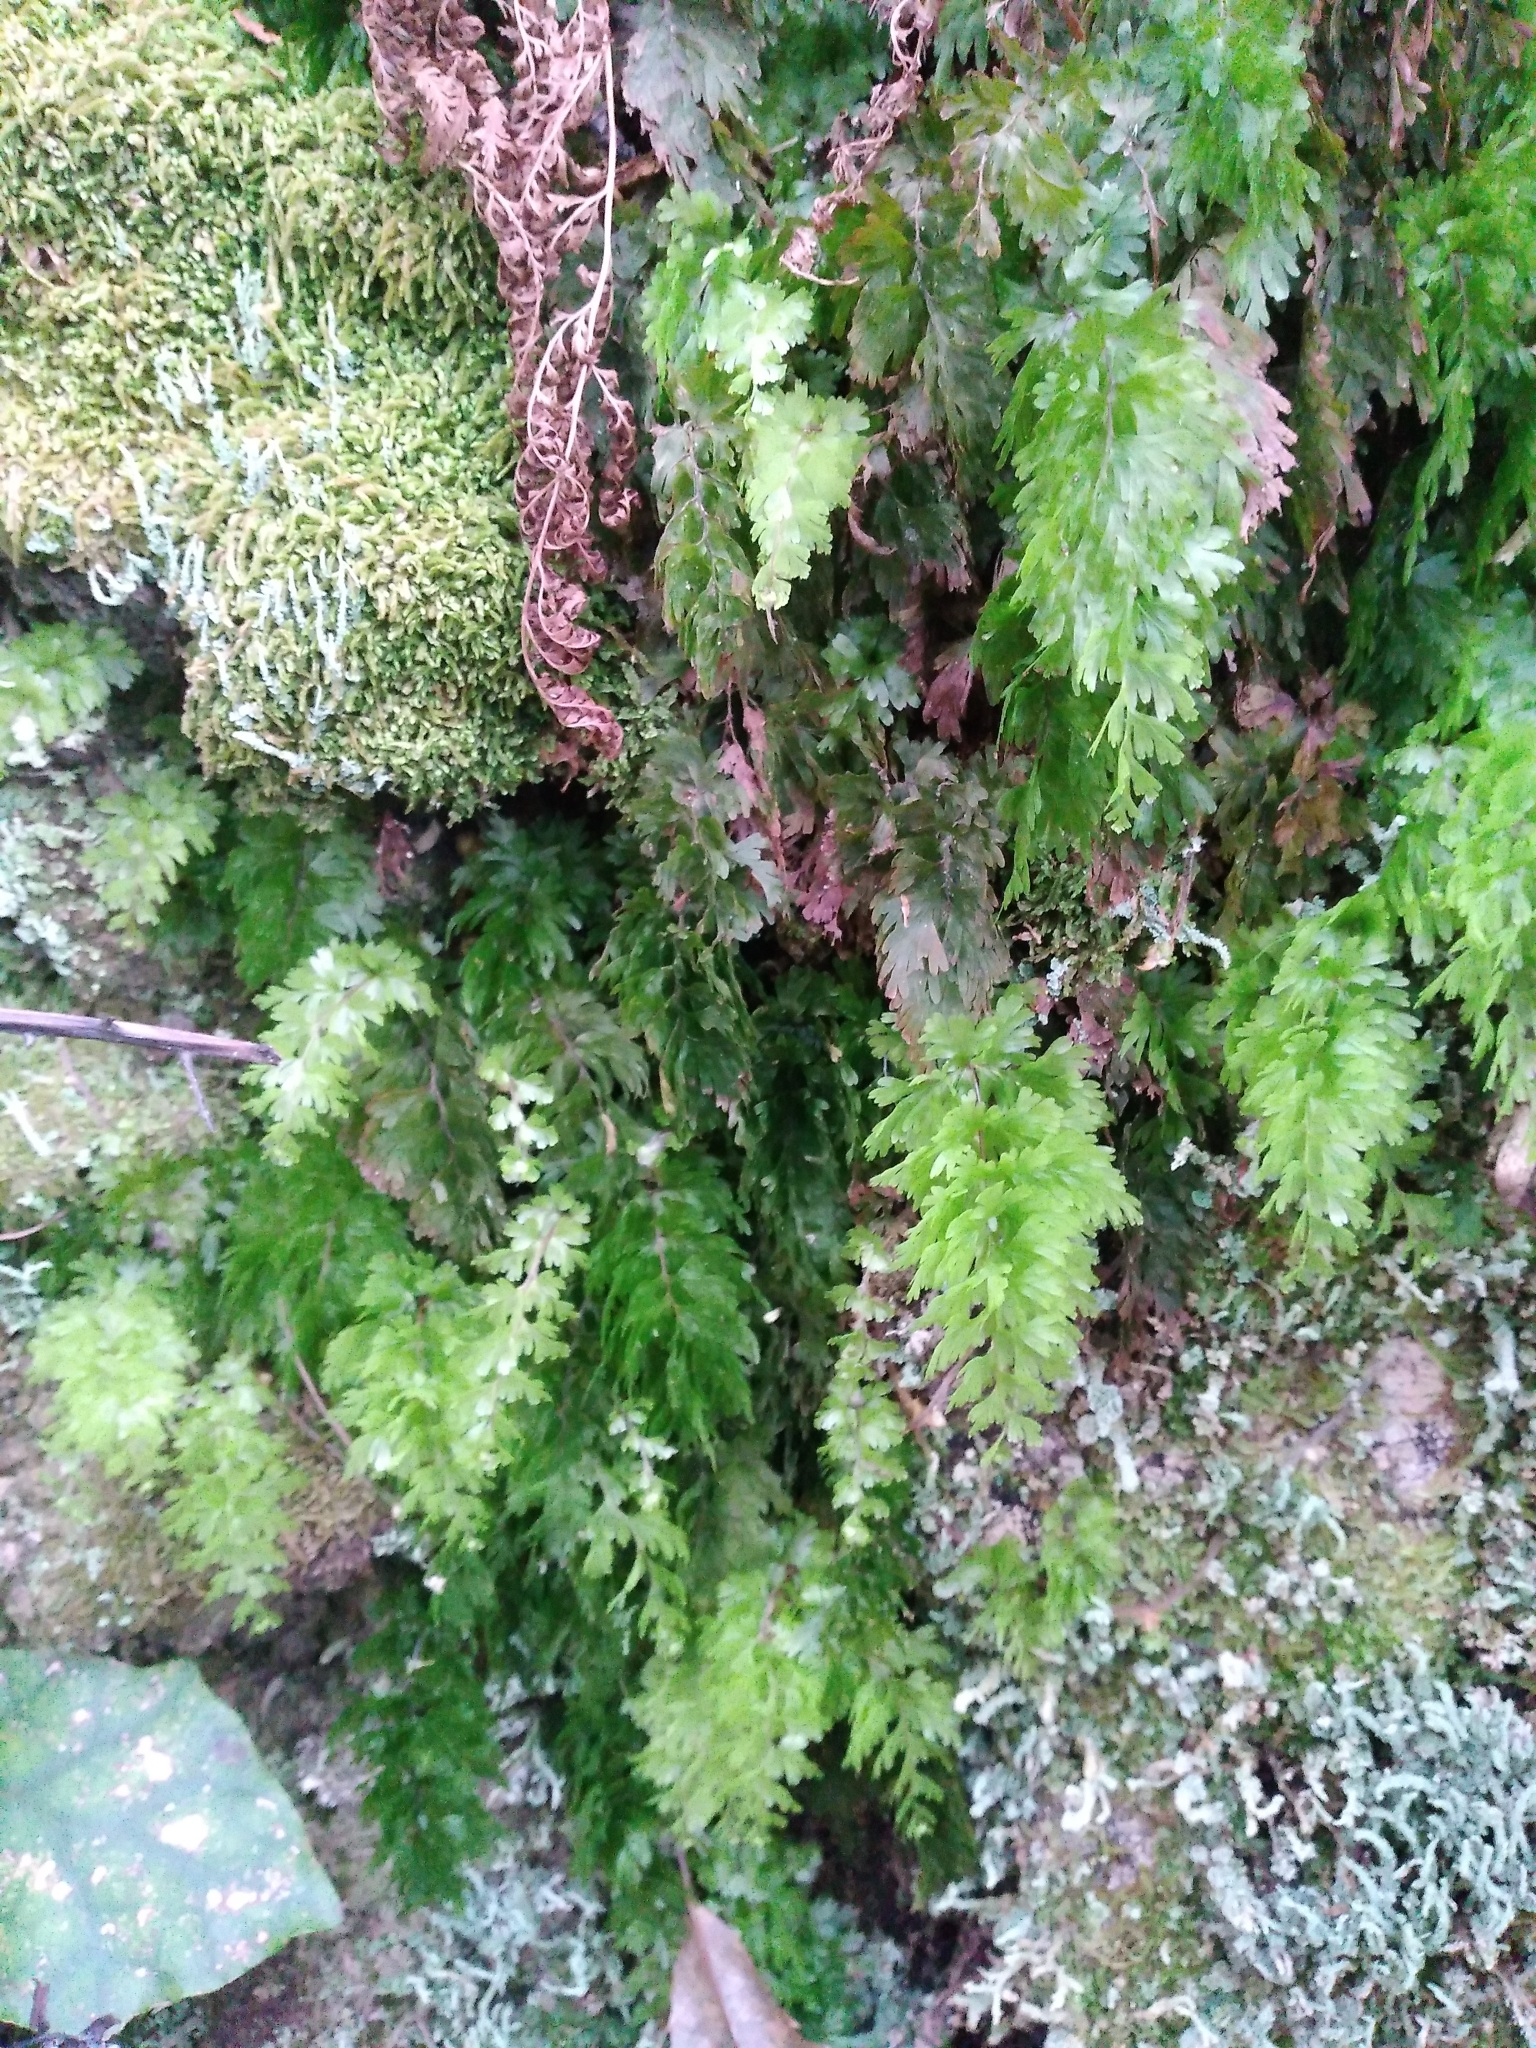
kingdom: Plantae
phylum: Tracheophyta
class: Polypodiopsida
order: Hymenophyllales
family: Hymenophyllaceae
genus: Hymenophyllum
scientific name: Hymenophyllum flabellatum
